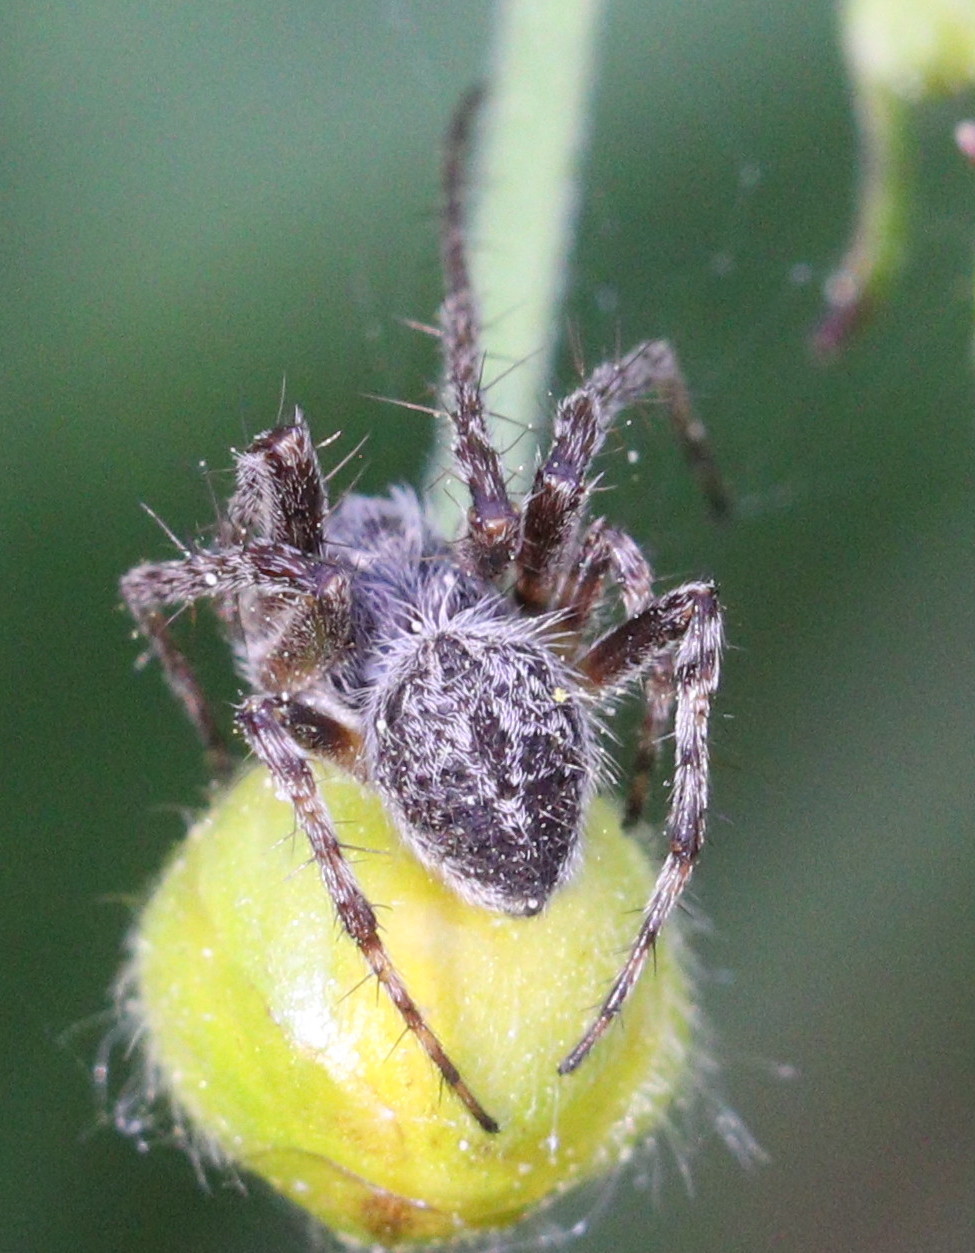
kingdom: Animalia
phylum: Arthropoda
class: Arachnida
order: Araneae
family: Araneidae
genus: Agalenatea
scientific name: Agalenatea redii
